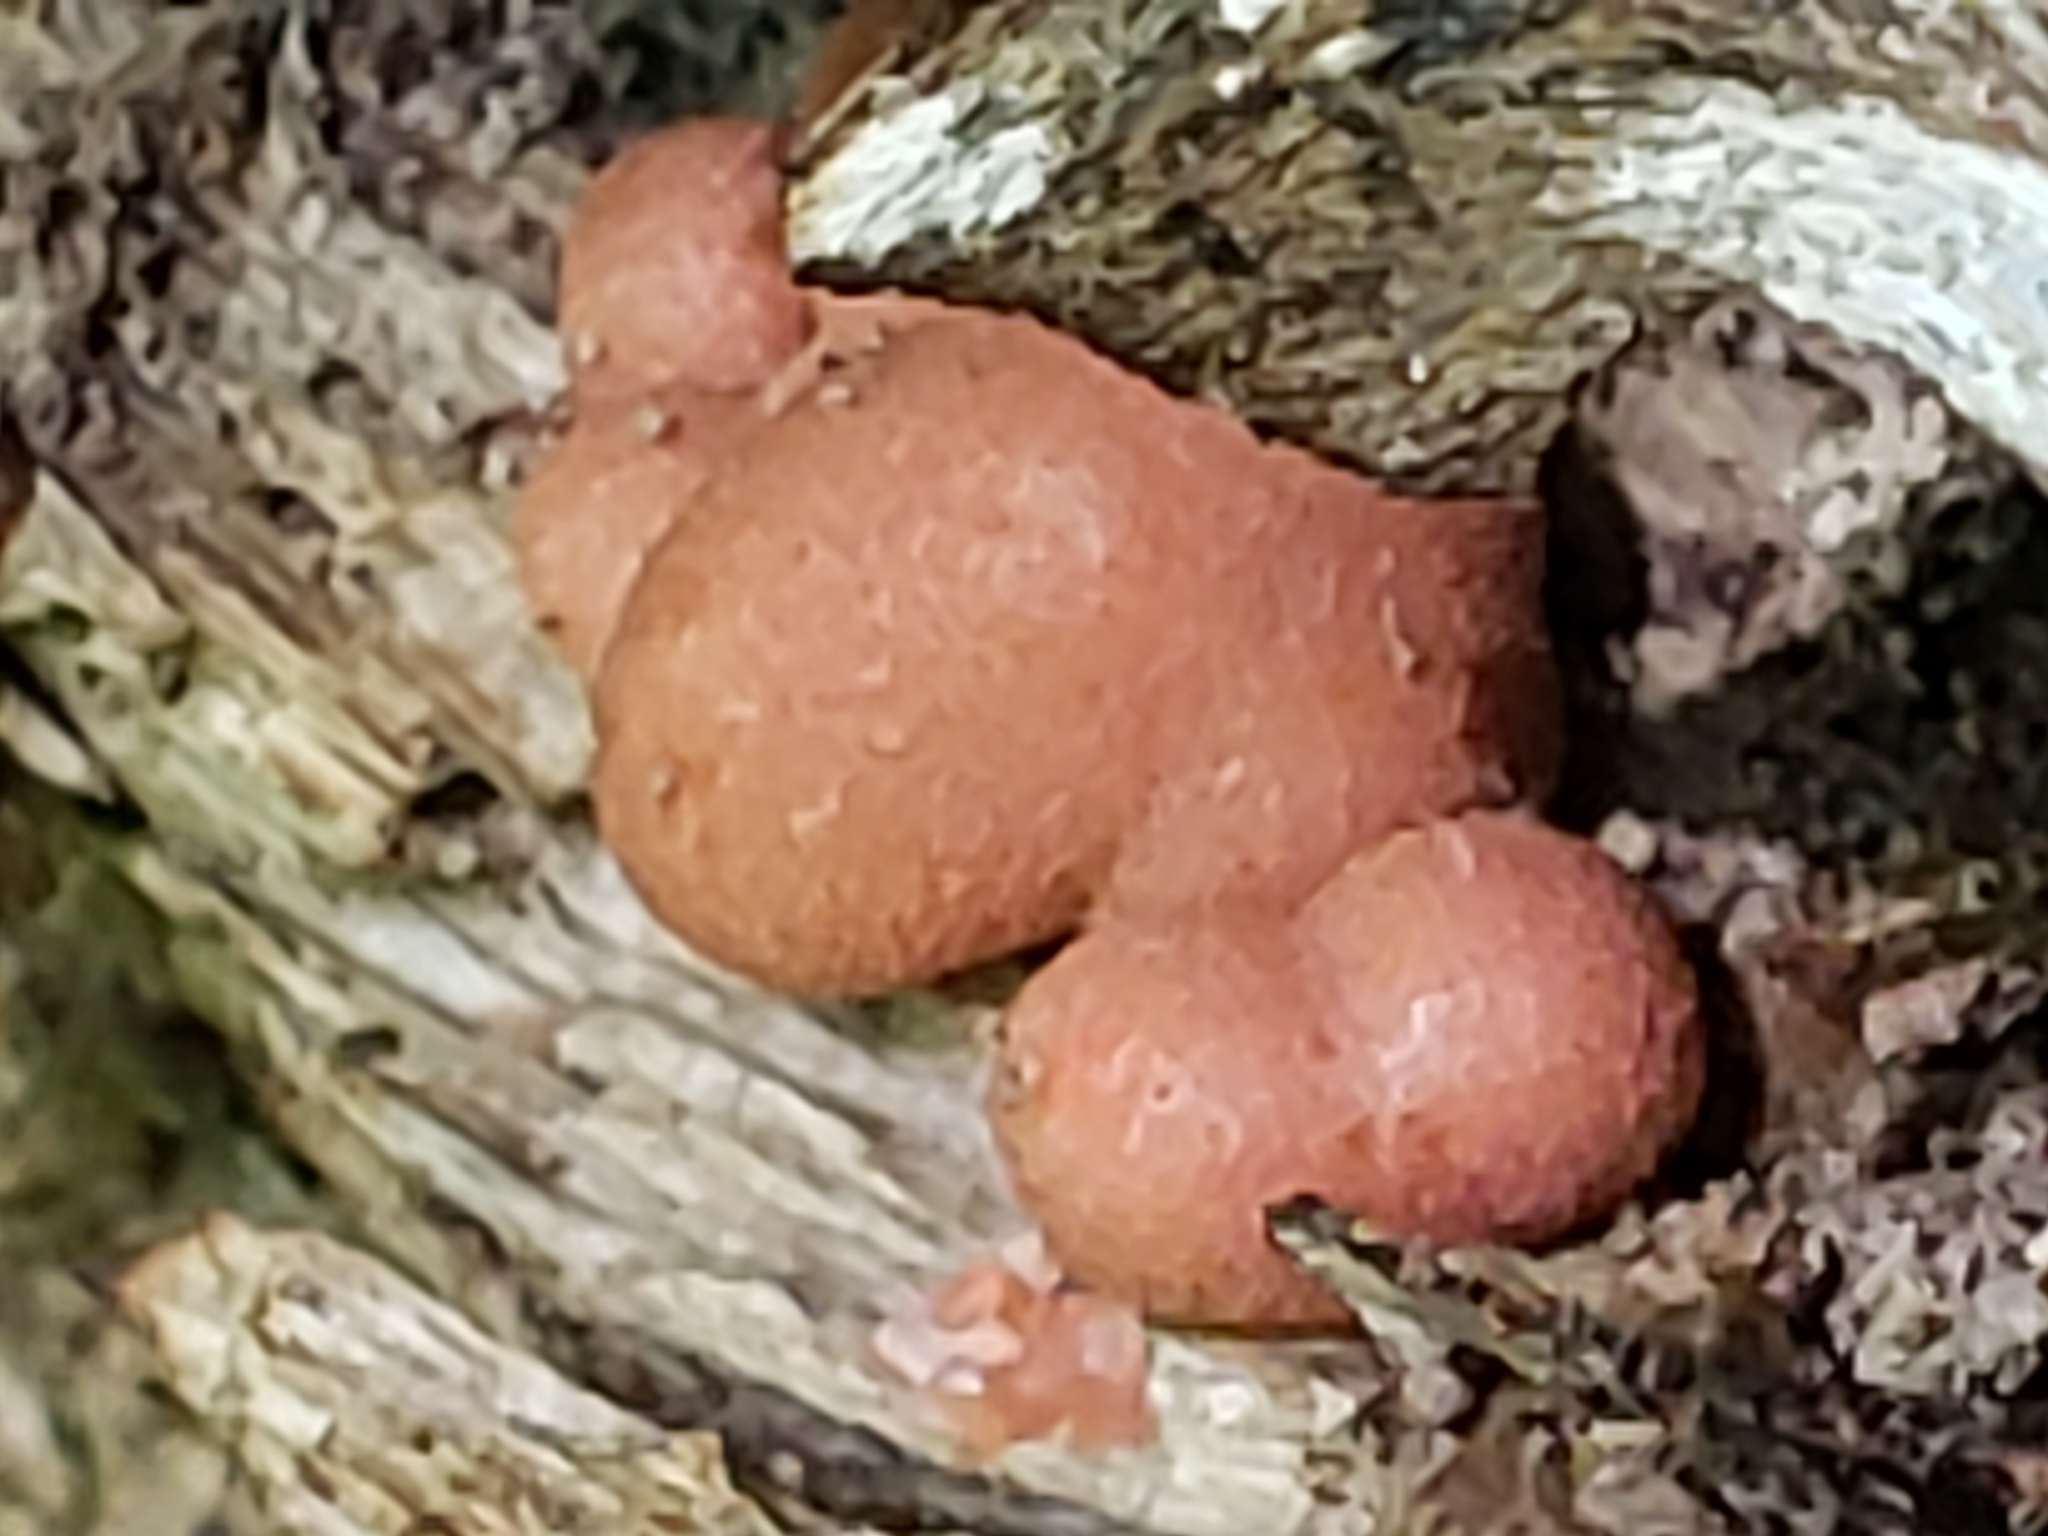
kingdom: Protozoa
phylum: Mycetozoa
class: Myxomycetes
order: Cribrariales
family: Tubiferaceae
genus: Lycogala
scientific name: Lycogala epidendrum
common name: Wolf's milk
